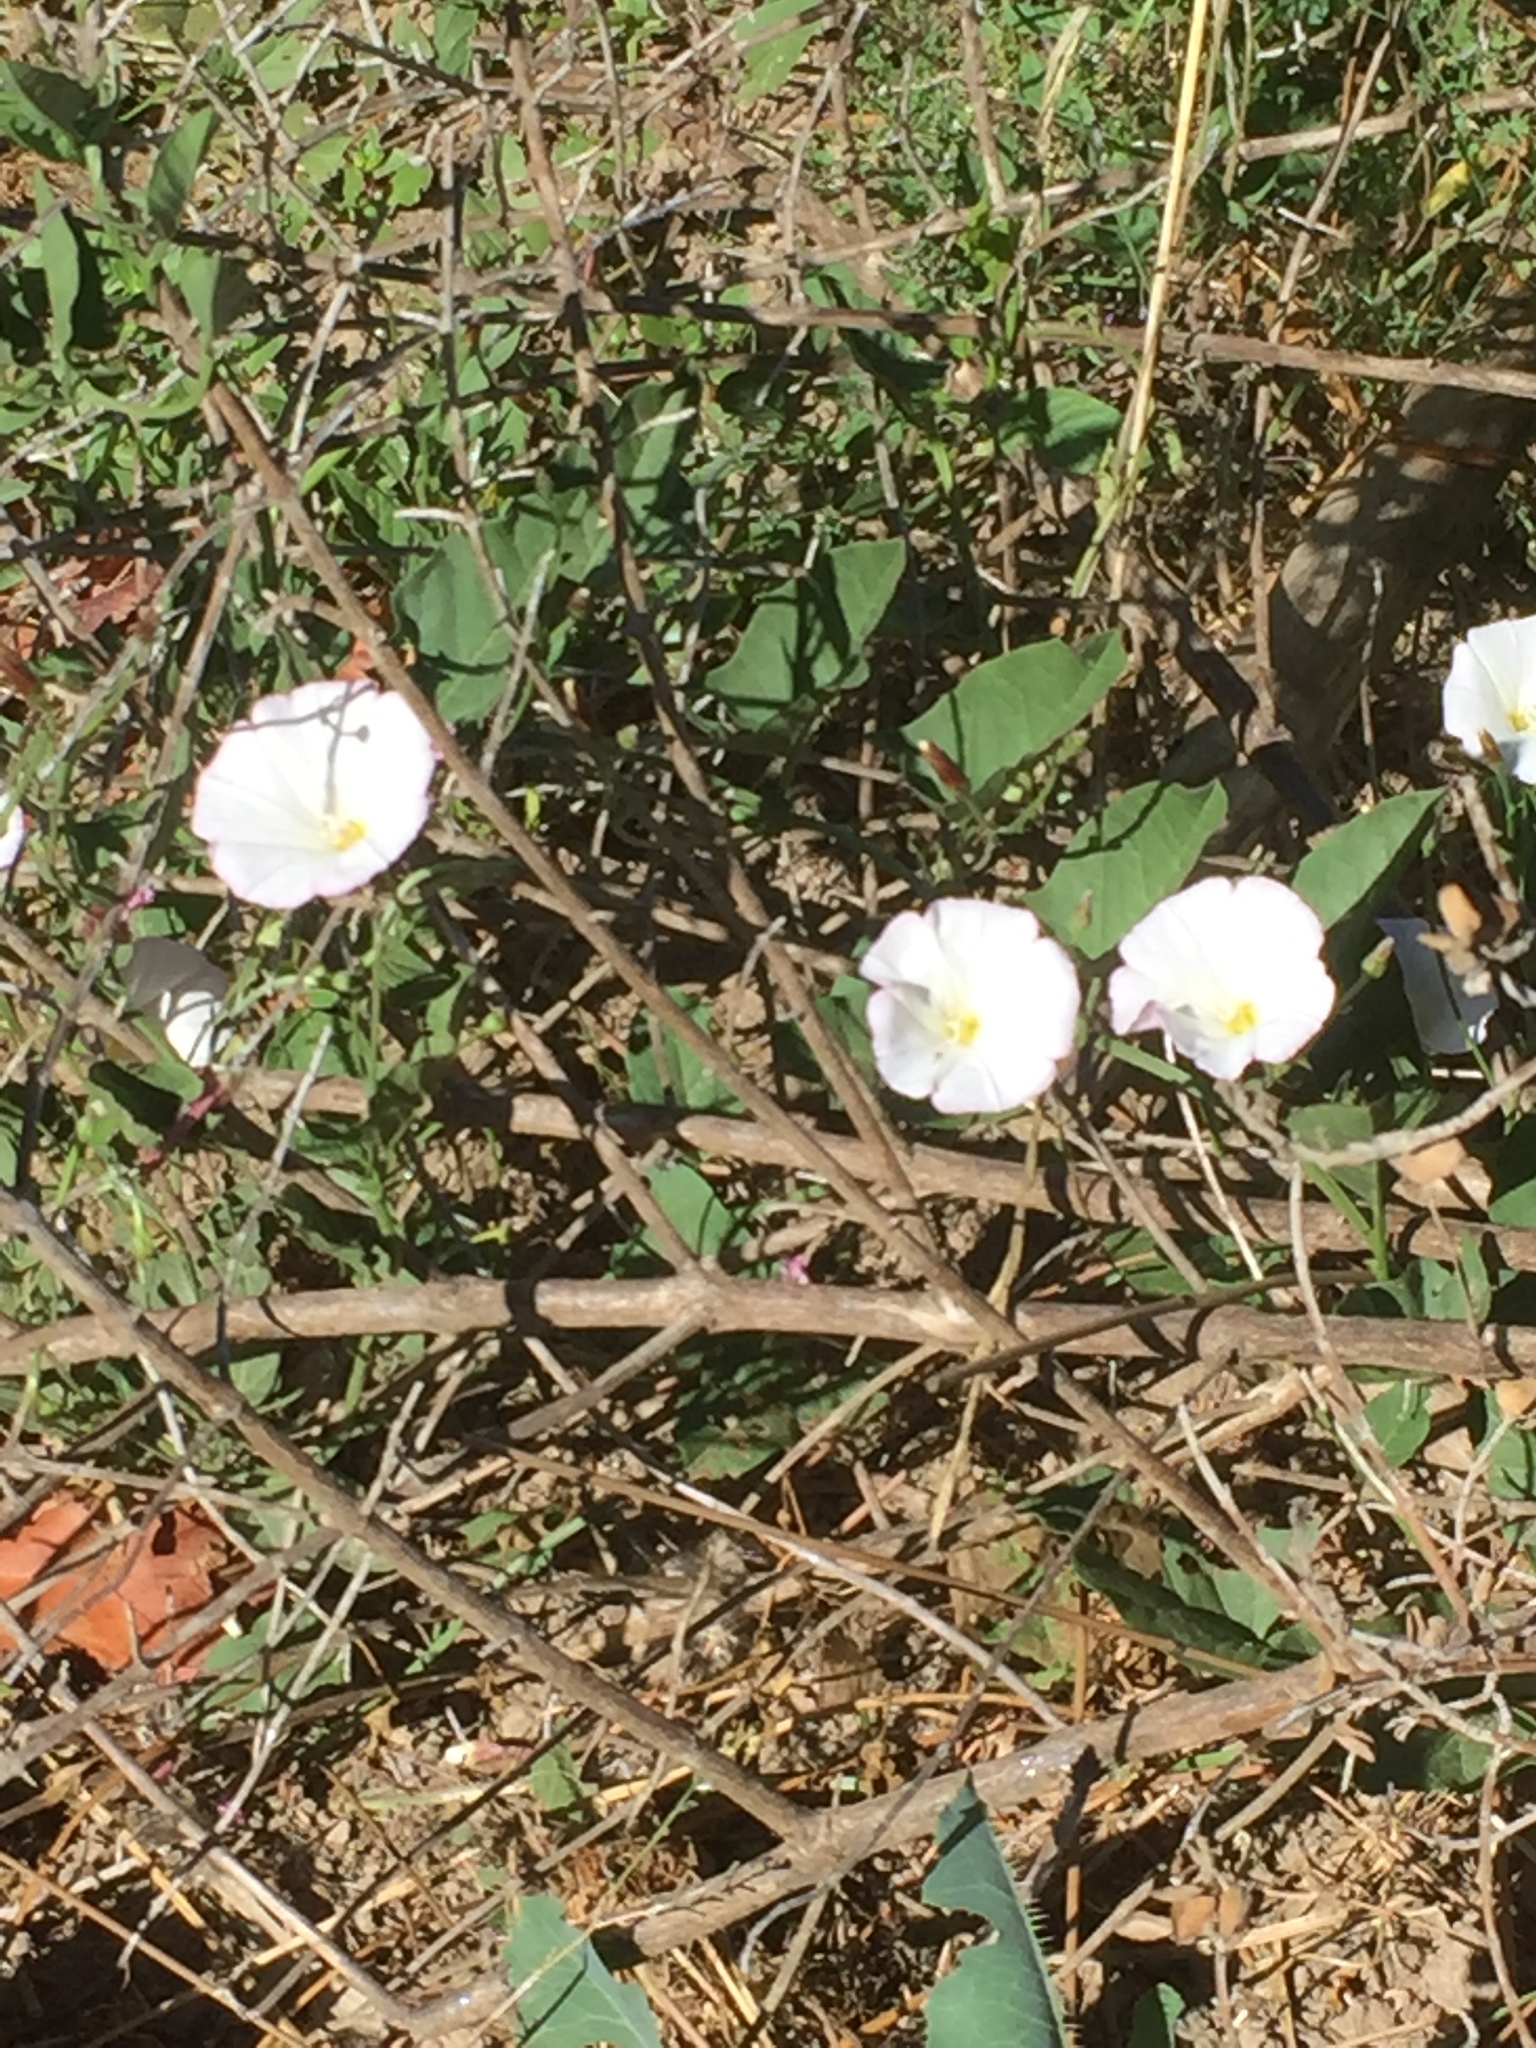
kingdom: Plantae
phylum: Tracheophyta
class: Magnoliopsida
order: Solanales
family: Convolvulaceae
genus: Convolvulus
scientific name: Convolvulus arvensis
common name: Field bindweed
